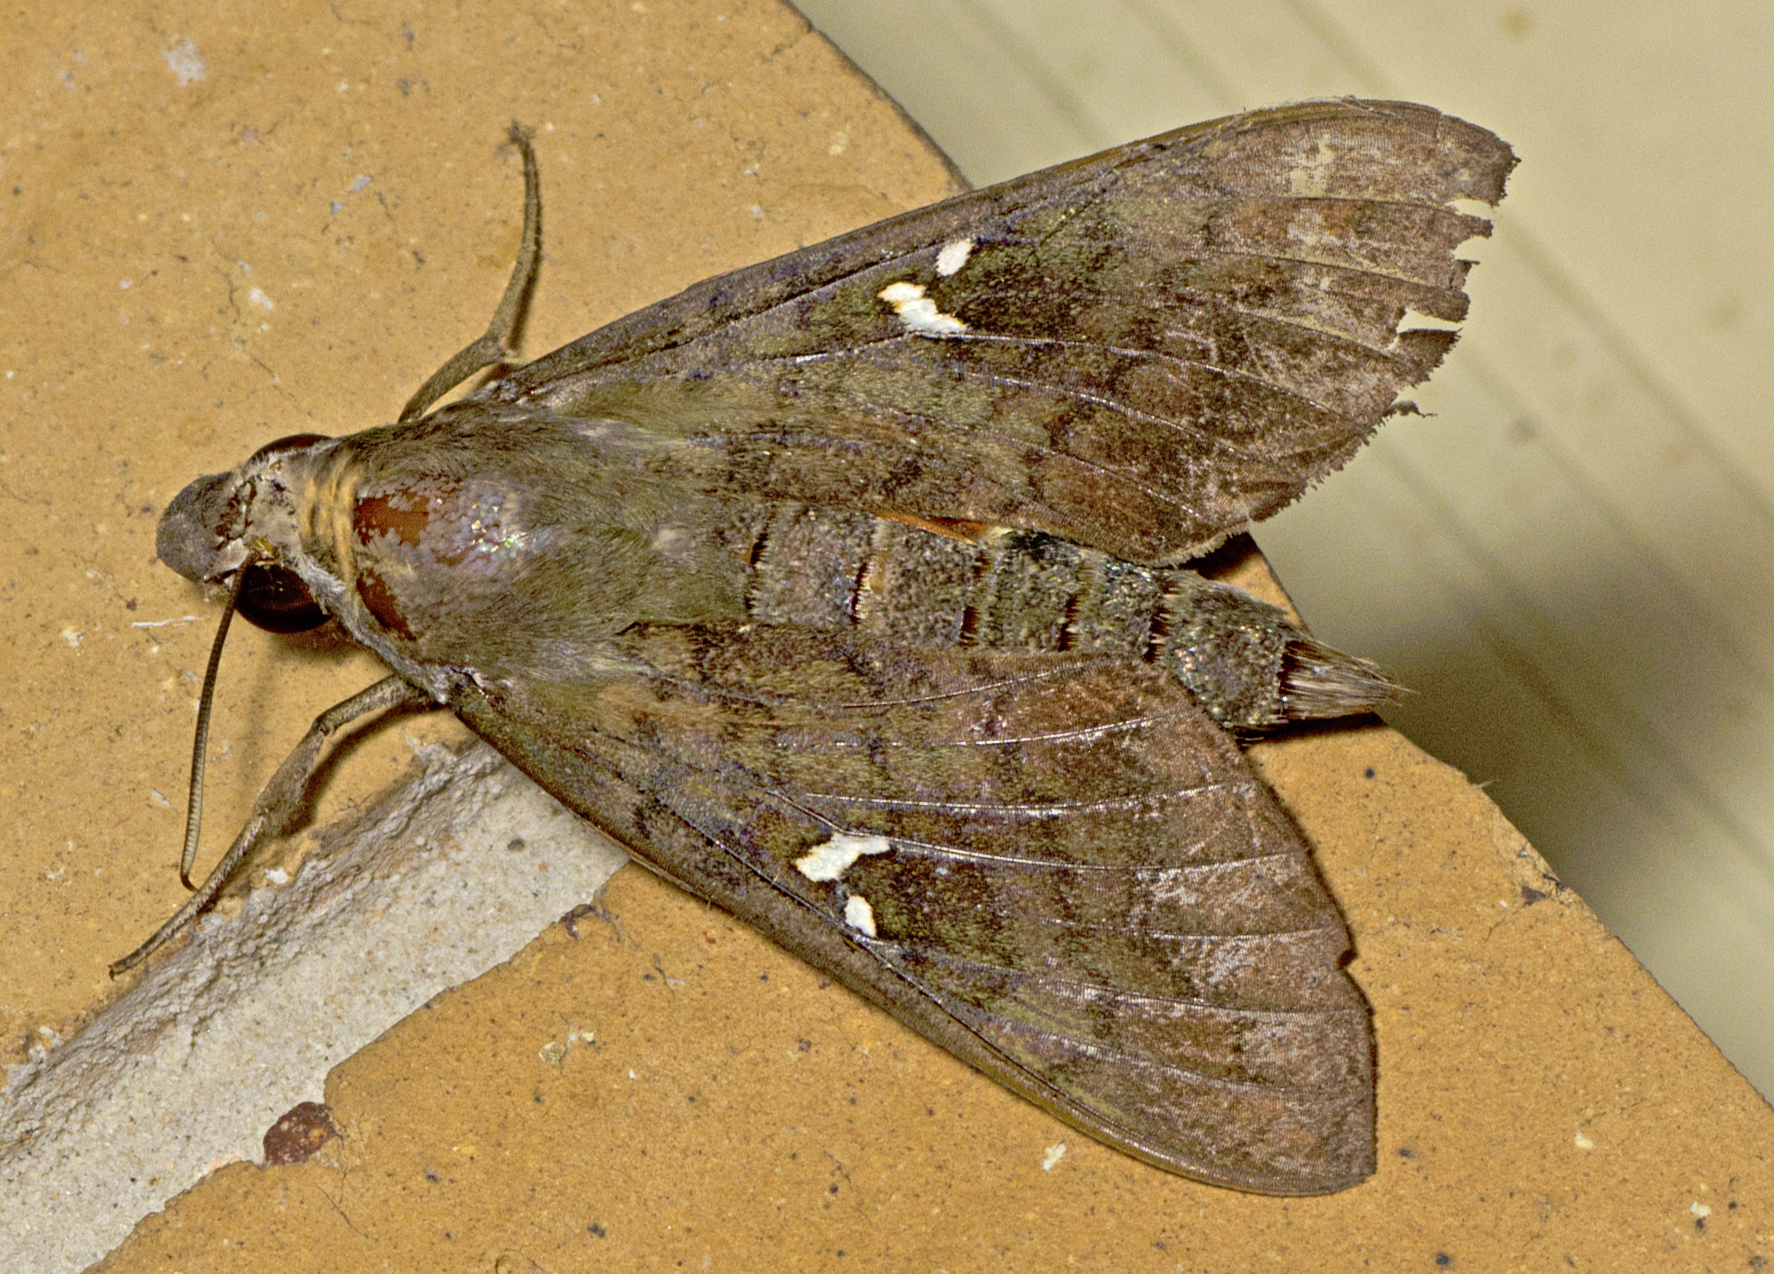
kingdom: Animalia
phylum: Arthropoda
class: Insecta
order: Lepidoptera
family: Sphingidae
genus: Nephele
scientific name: Nephele subvaria
